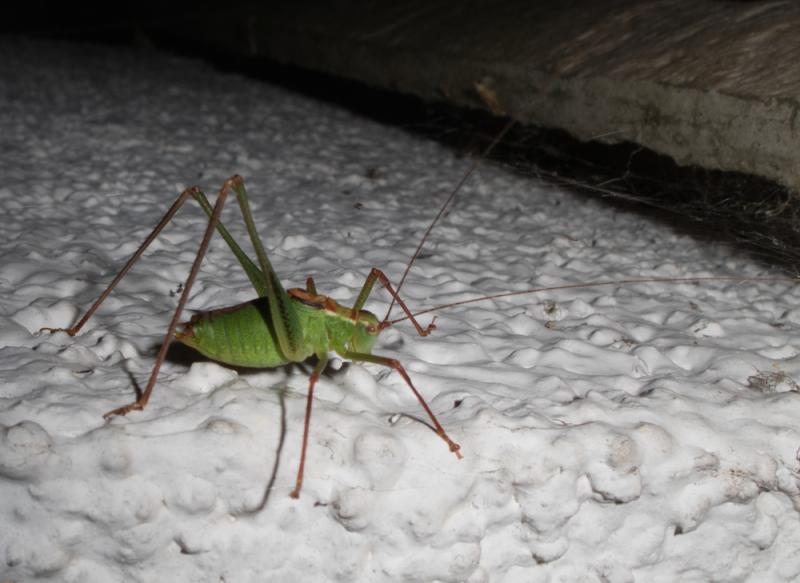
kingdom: Animalia
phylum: Arthropoda
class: Insecta
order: Orthoptera
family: Tettigoniidae
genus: Leptophyes
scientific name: Leptophyes punctatissima
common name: Speckled bush-cricket
